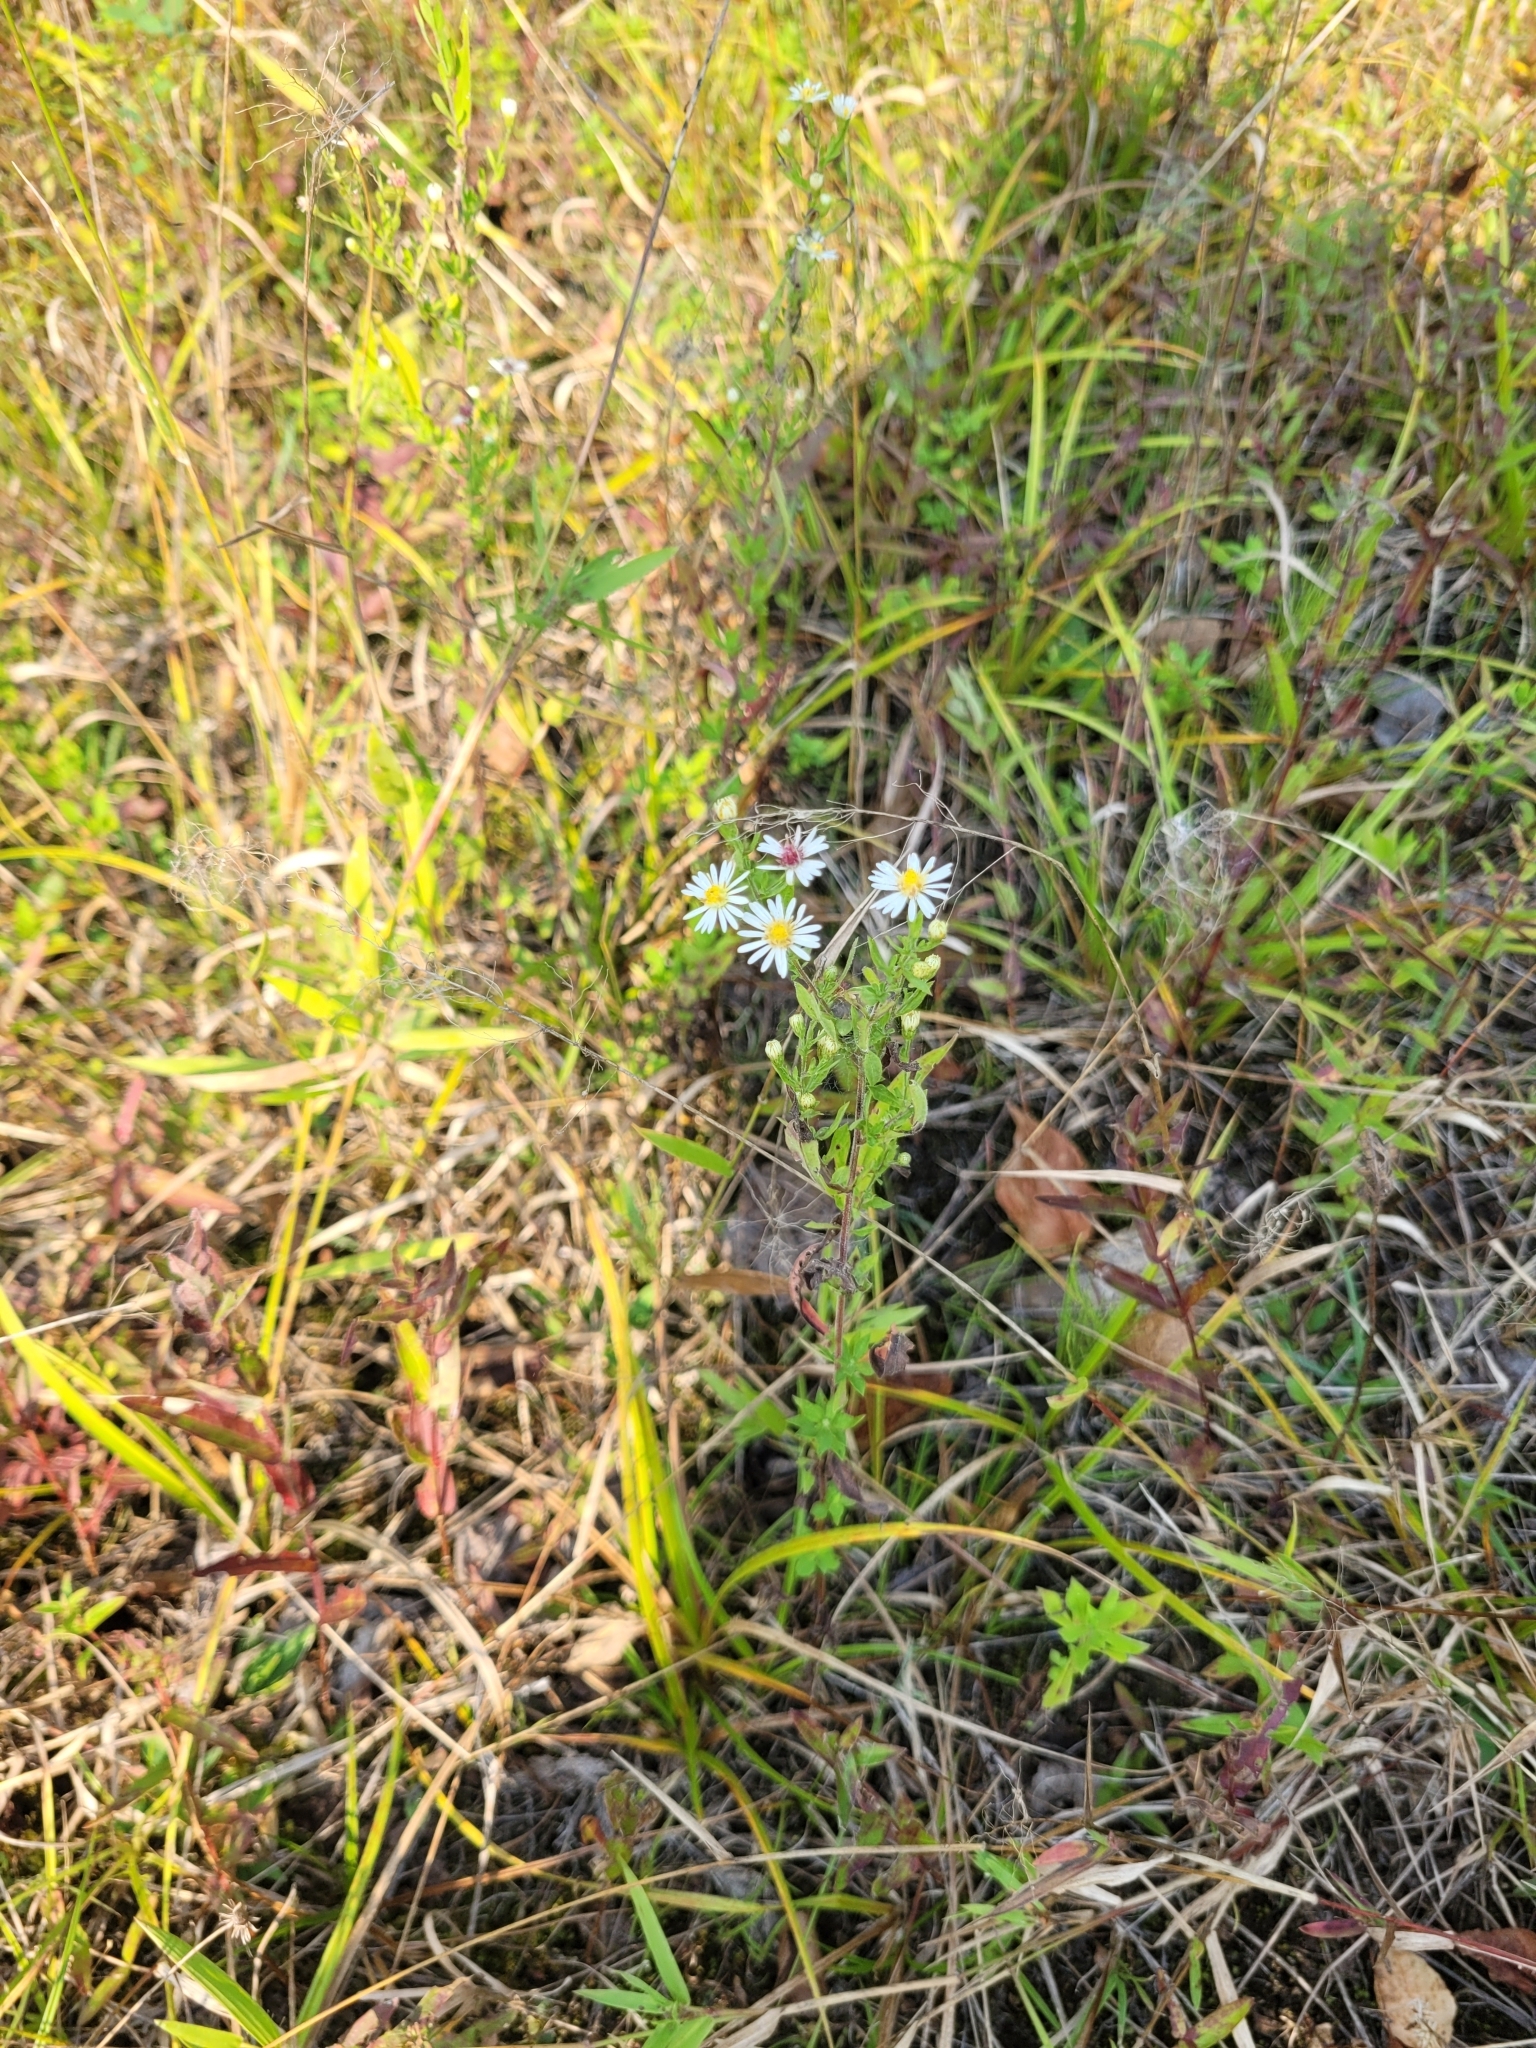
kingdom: Plantae
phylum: Tracheophyta
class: Magnoliopsida
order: Asterales
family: Asteraceae
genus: Symphyotrichum
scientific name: Symphyotrichum ontarionis
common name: Bottomland aster
